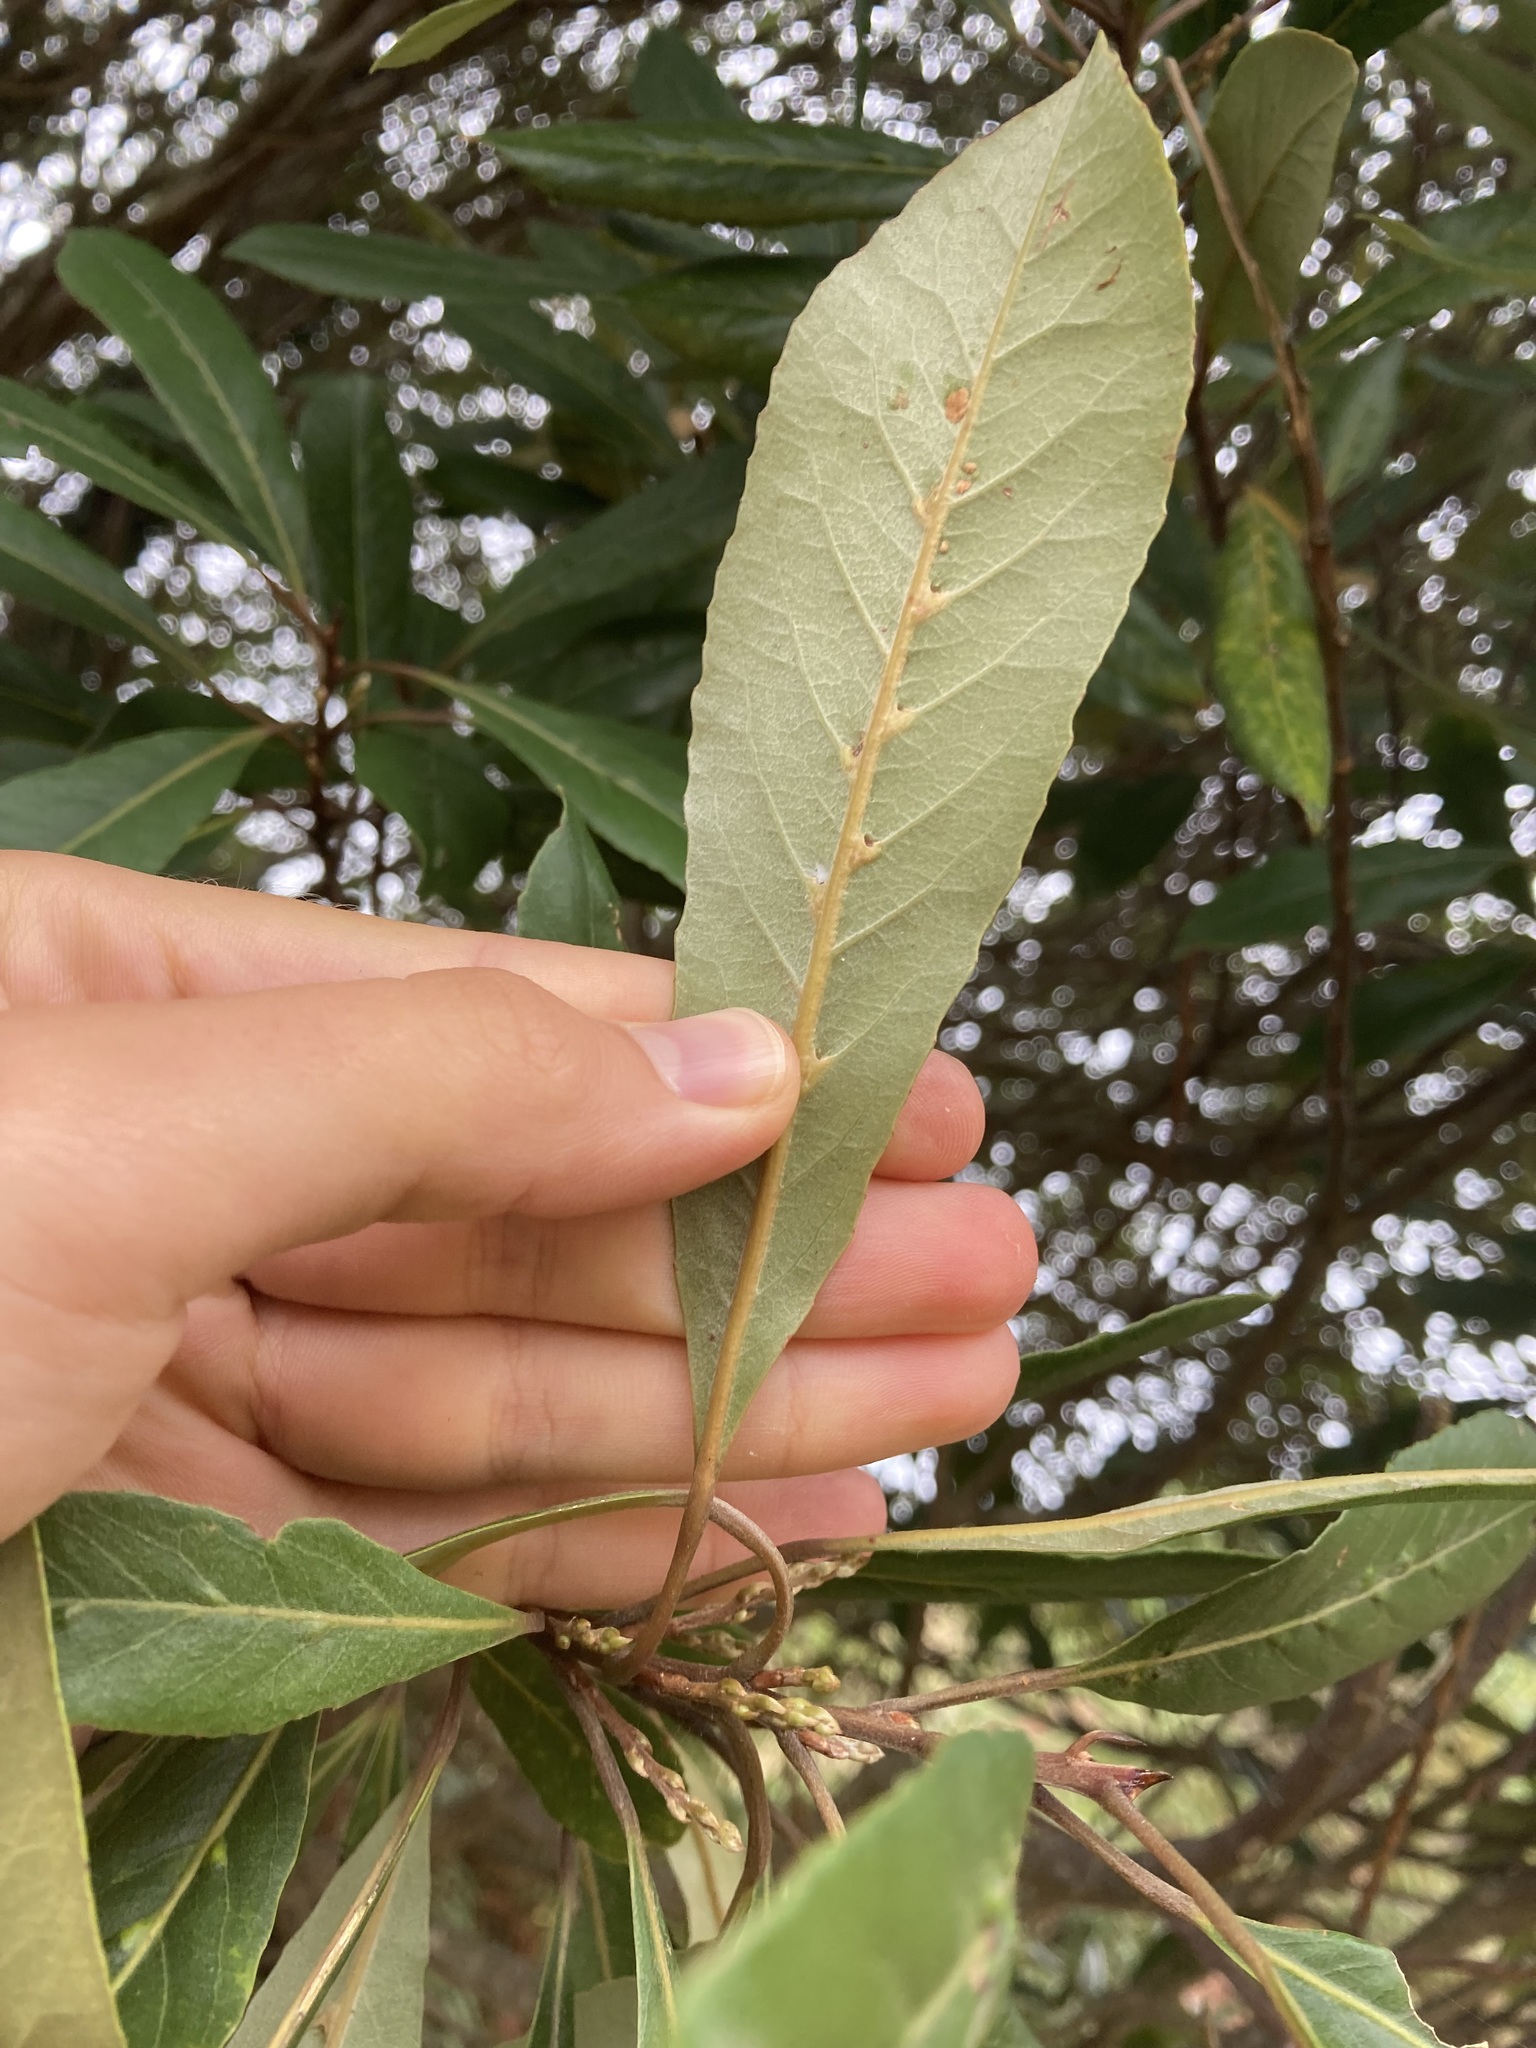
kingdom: Plantae
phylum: Tracheophyta
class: Magnoliopsida
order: Oxalidales
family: Elaeocarpaceae
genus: Elaeocarpus
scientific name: Elaeocarpus dentatus
